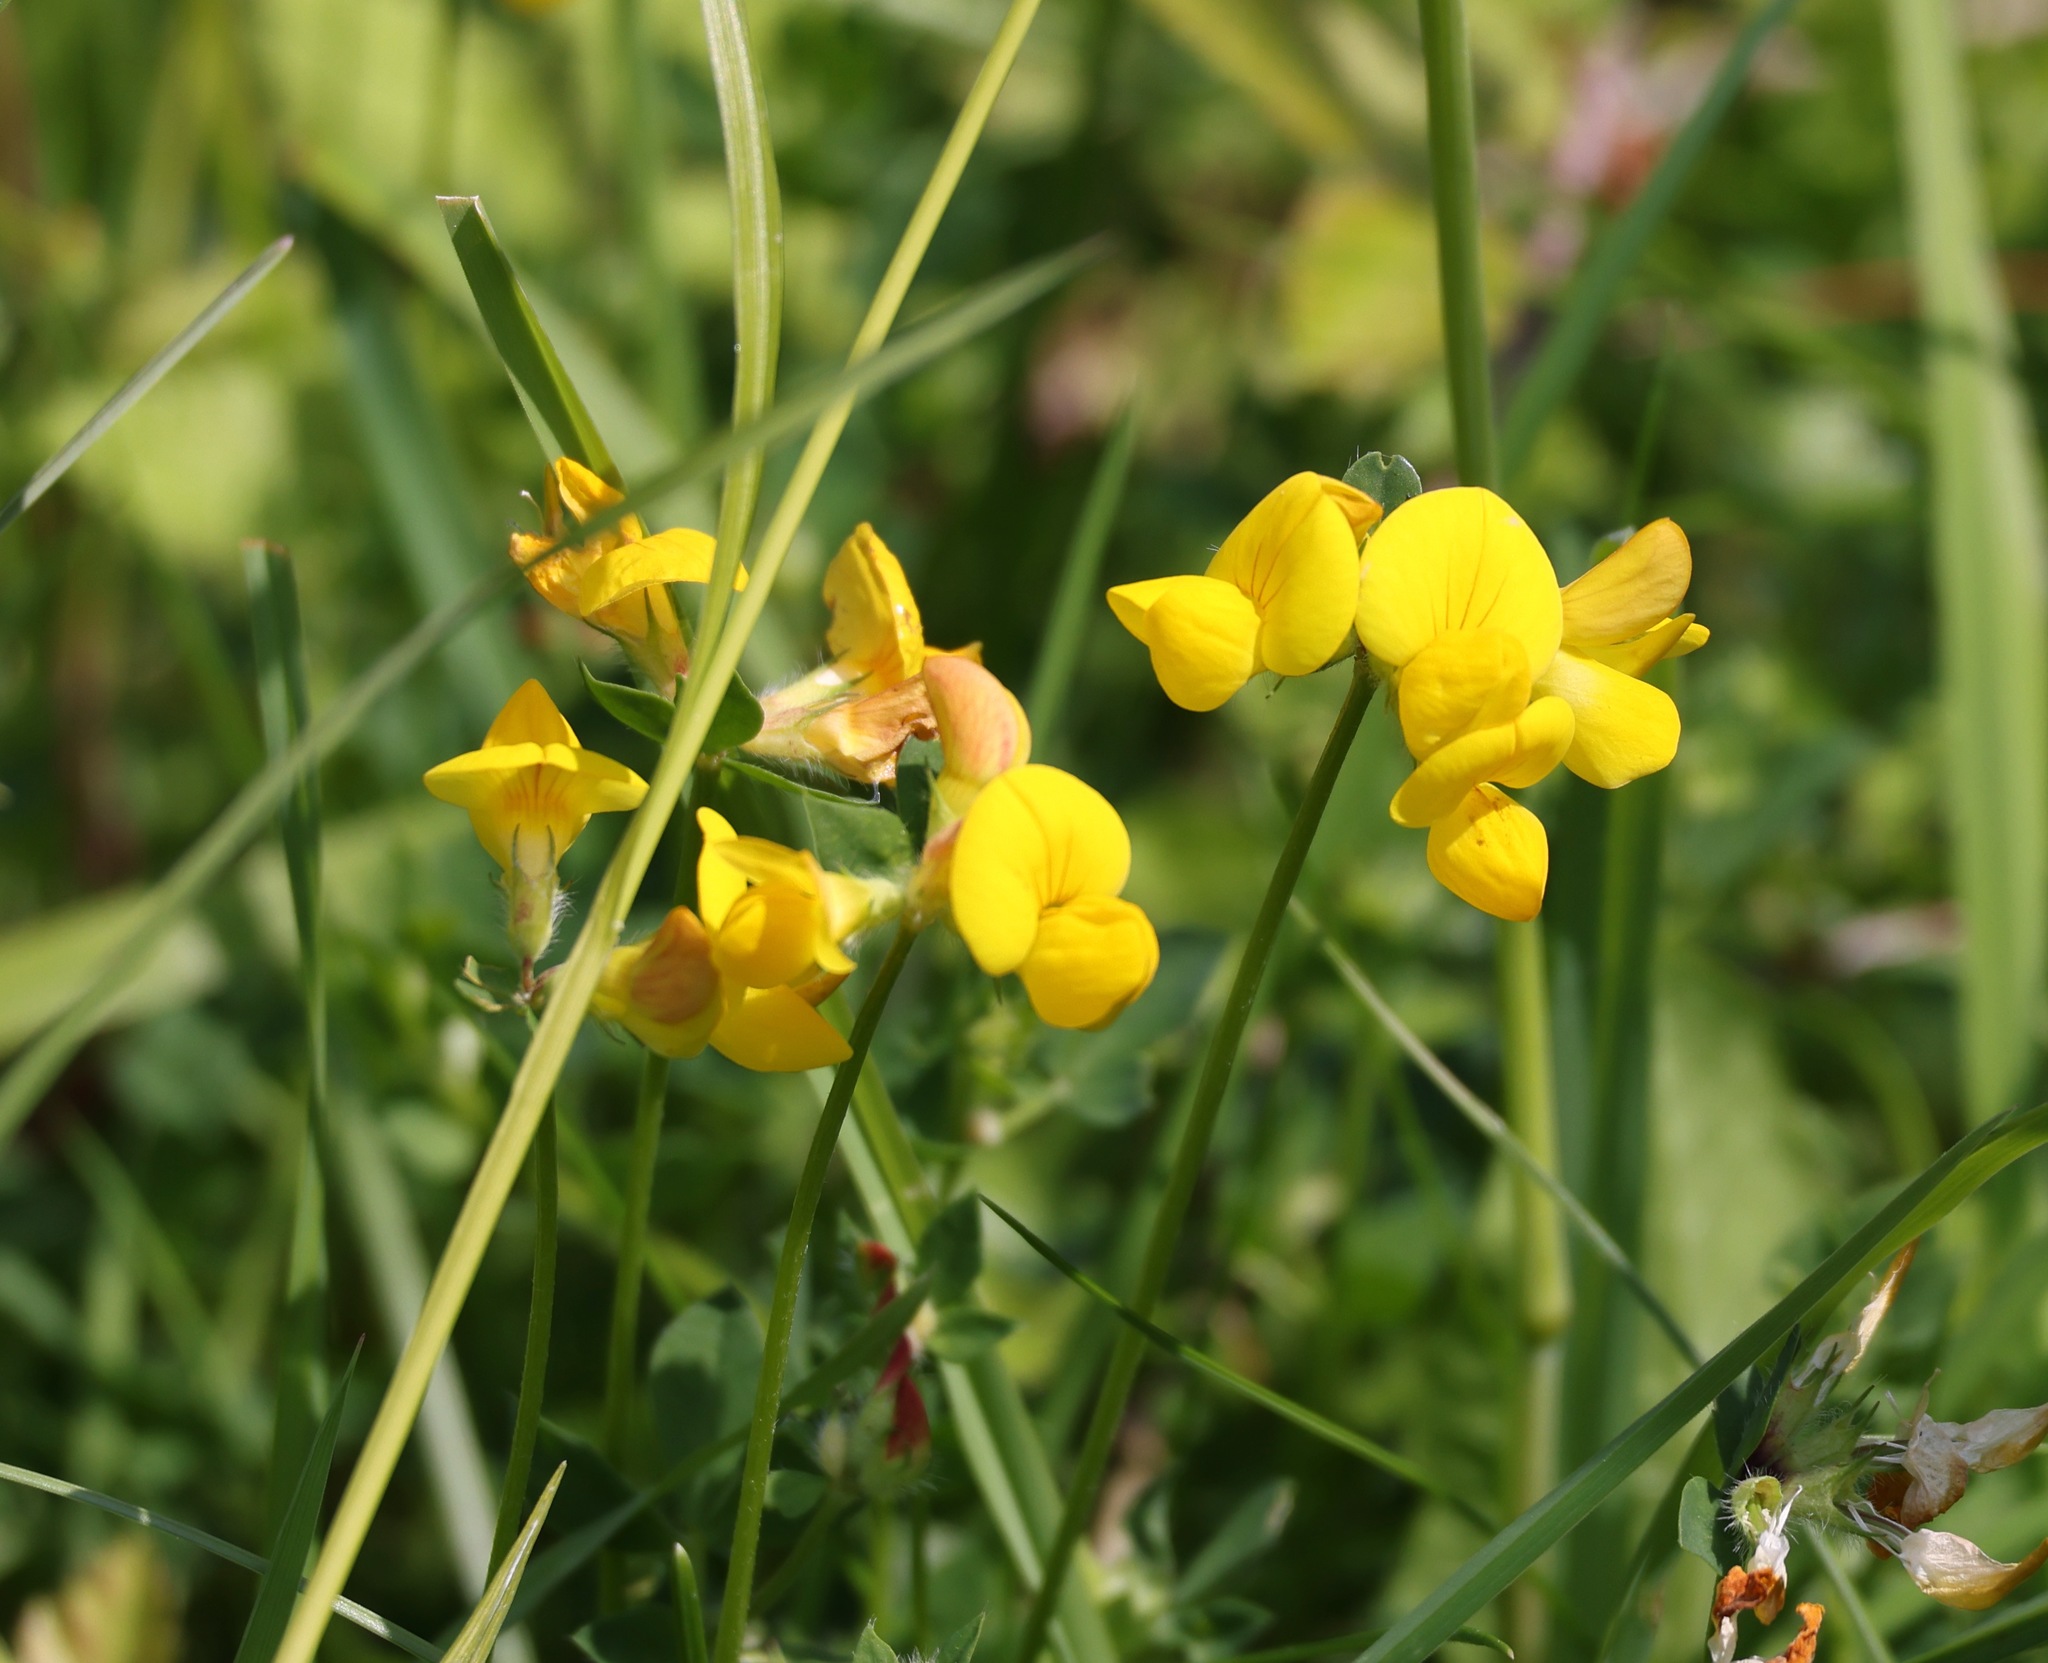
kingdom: Plantae
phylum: Tracheophyta
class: Magnoliopsida
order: Fabales
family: Fabaceae
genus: Lotus
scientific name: Lotus corniculatus
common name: Common bird's-foot-trefoil
